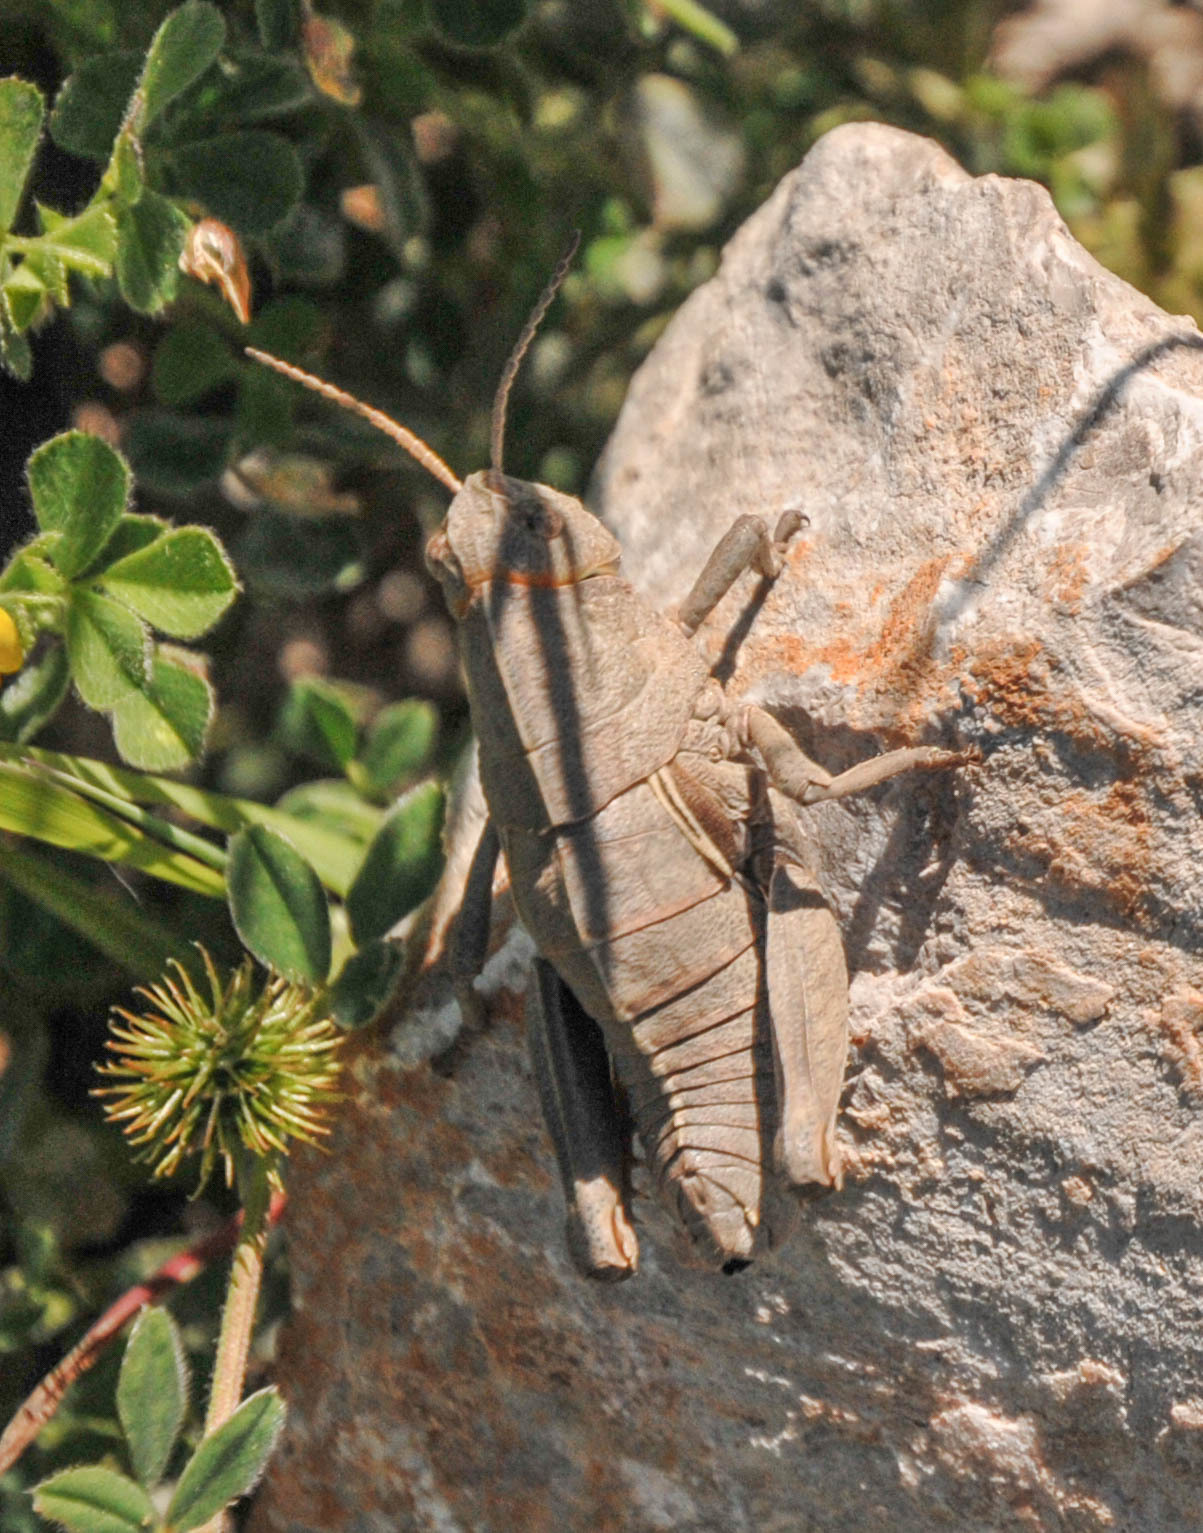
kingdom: Animalia
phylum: Arthropoda
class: Insecta
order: Orthoptera
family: Pamphagidae
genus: Euryparyphes
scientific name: Euryparyphes terrulentus
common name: Earthling stone grasshopper
